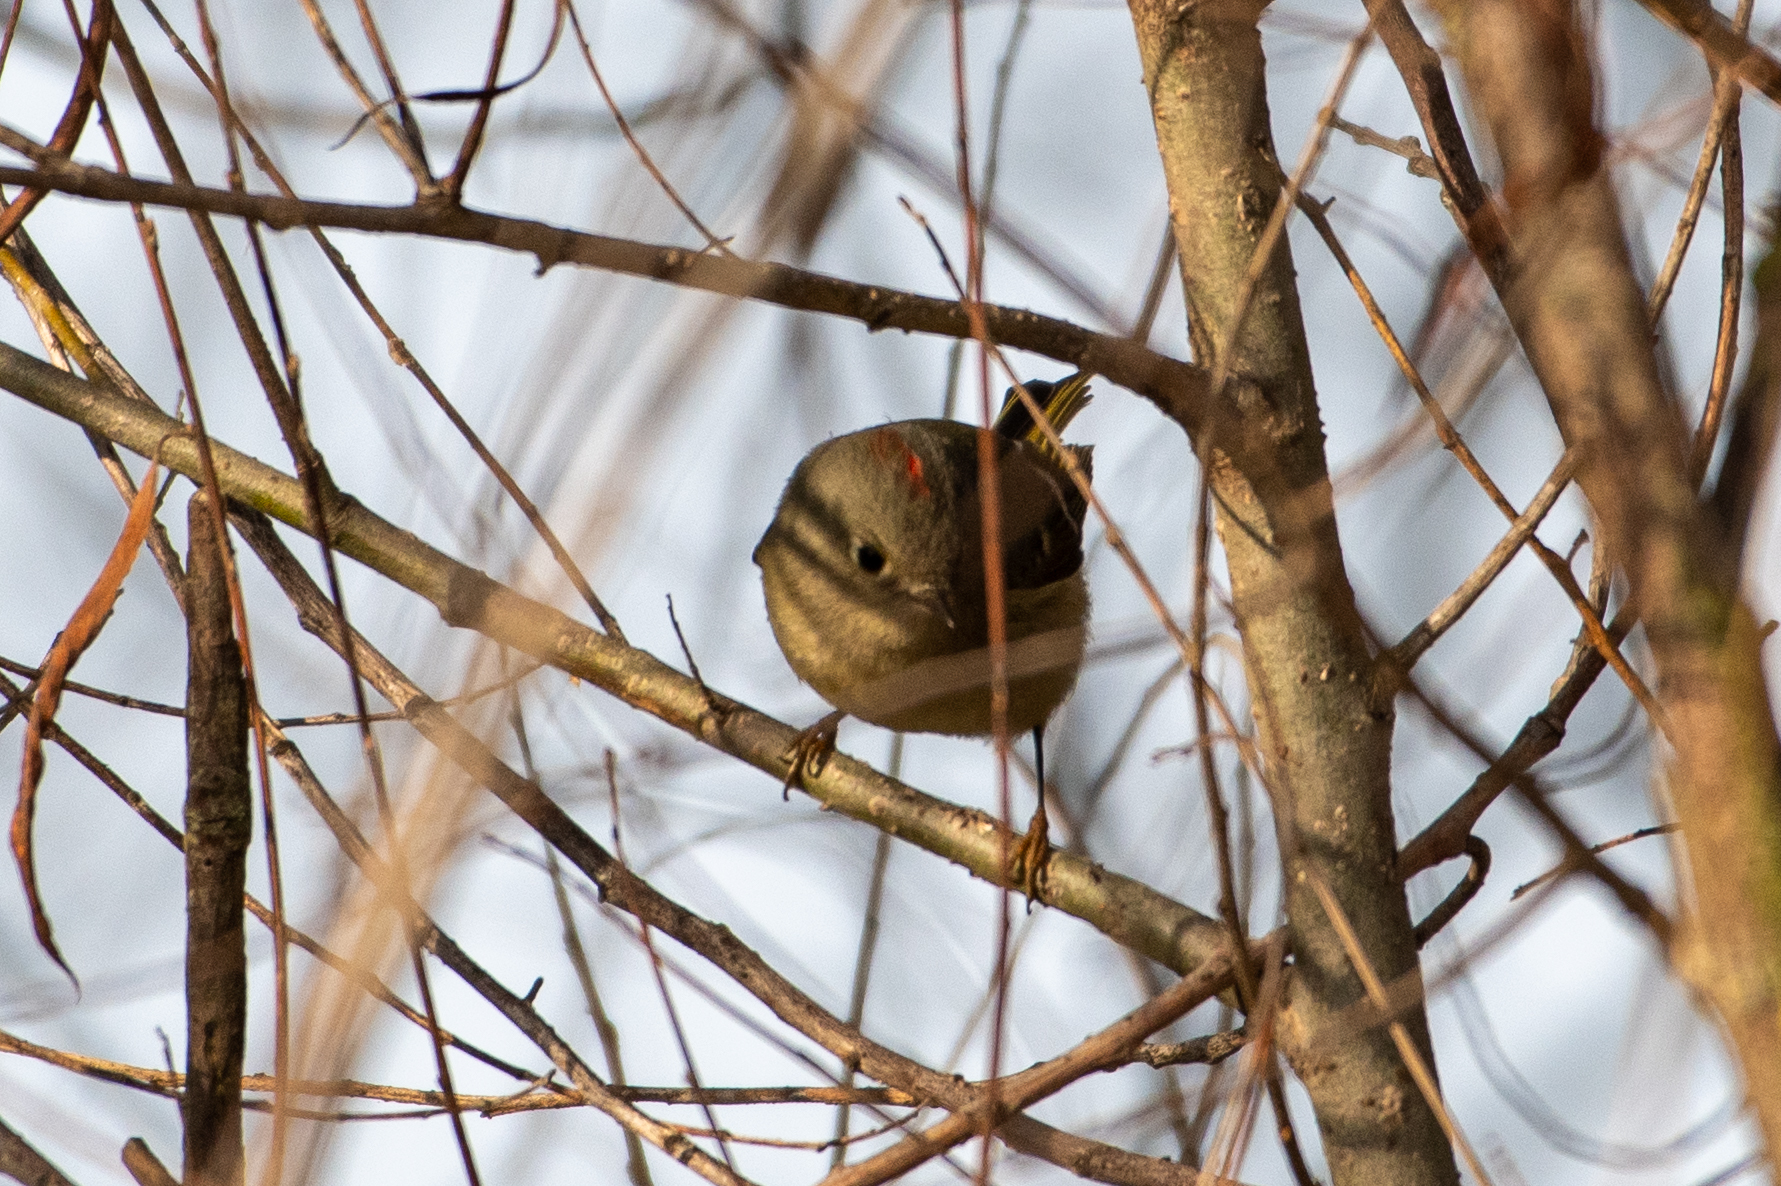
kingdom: Animalia
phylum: Chordata
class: Aves
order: Passeriformes
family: Regulidae
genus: Regulus
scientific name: Regulus calendula
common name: Ruby-crowned kinglet
